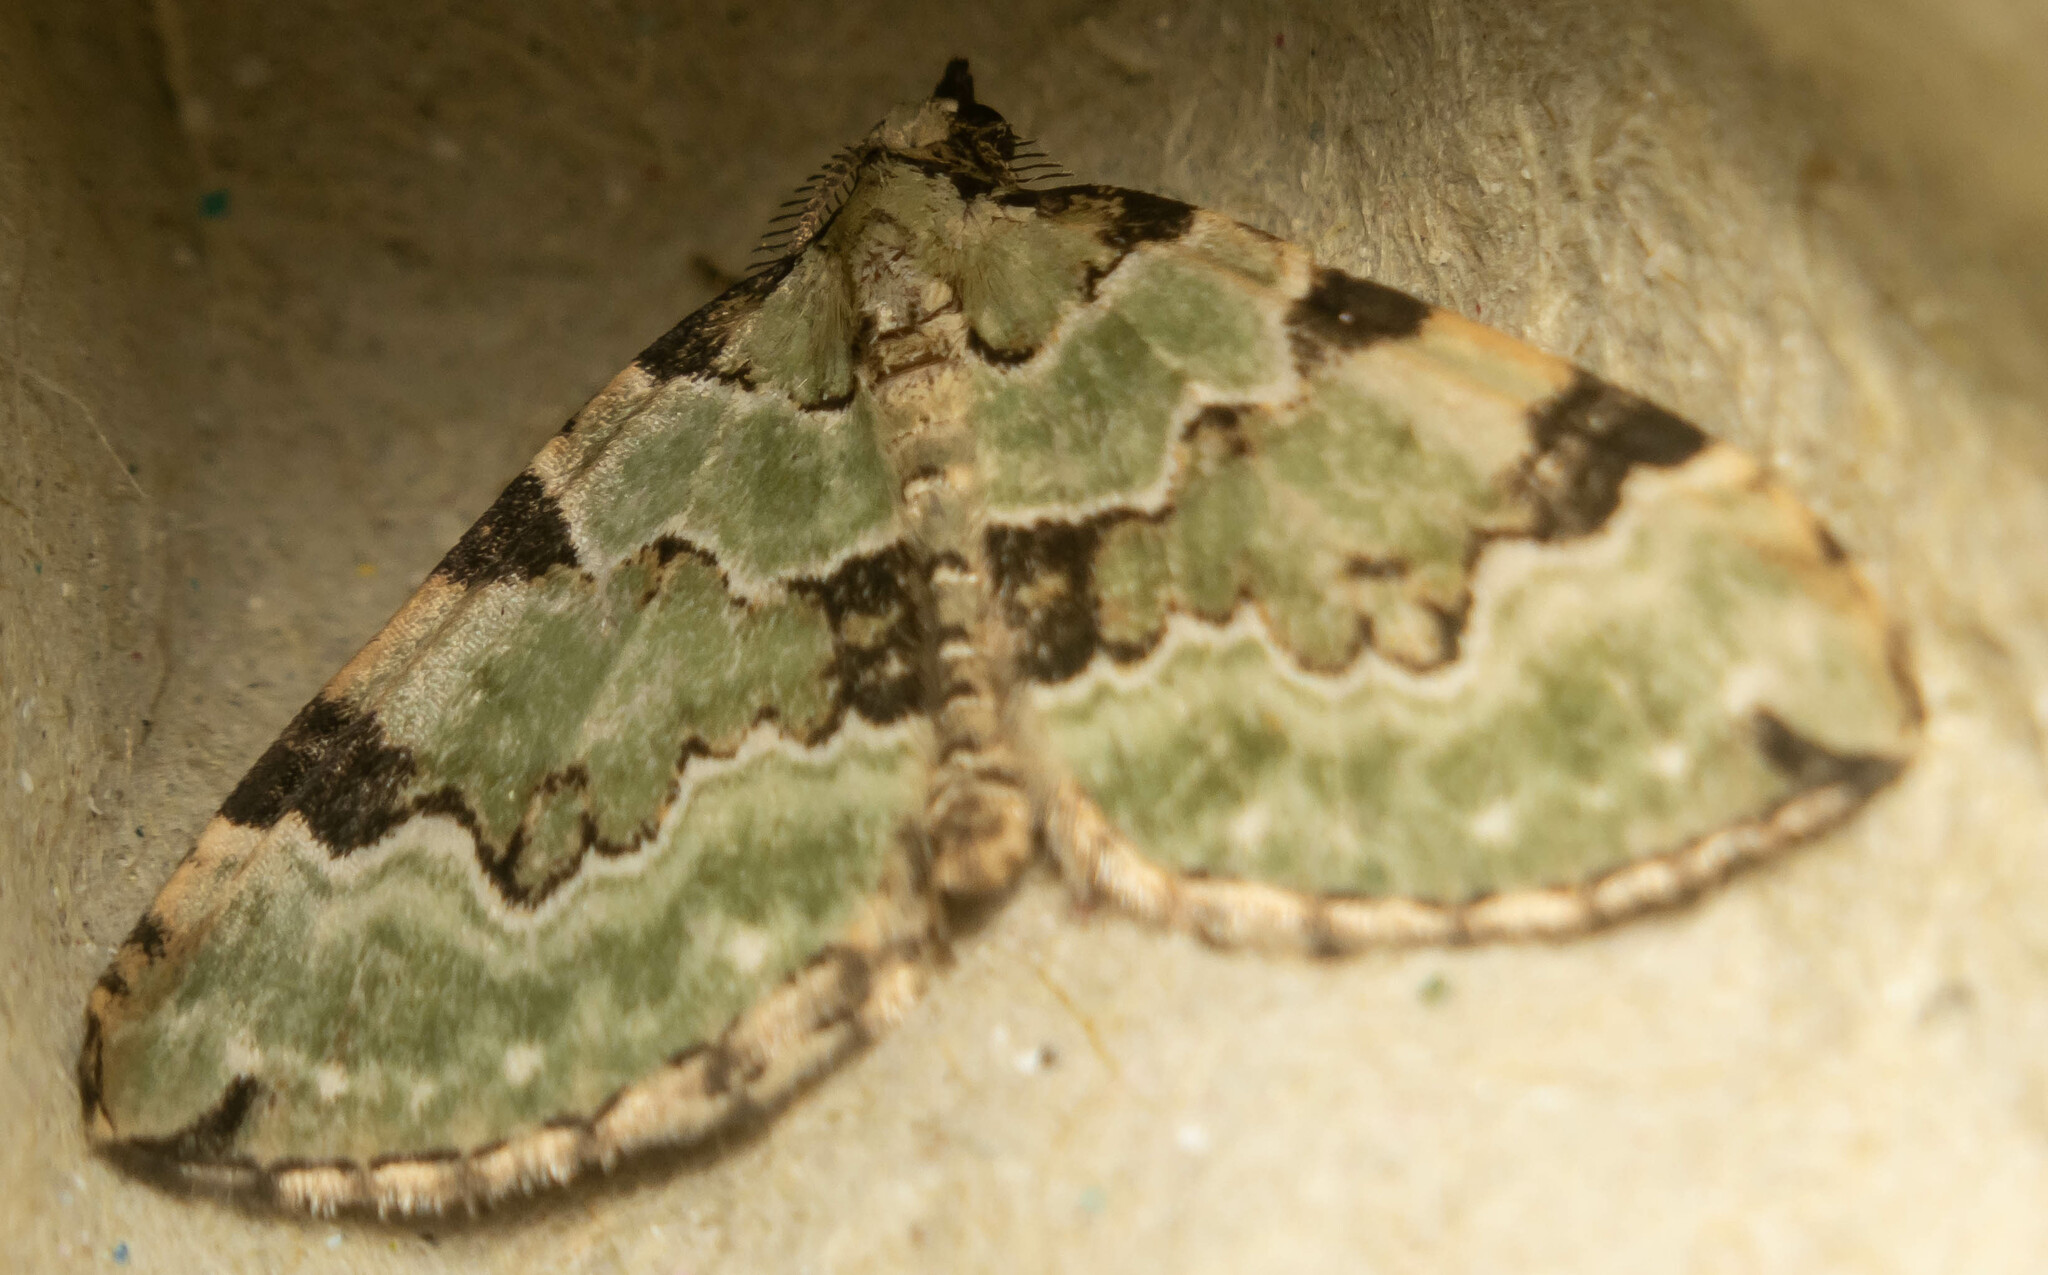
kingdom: Animalia
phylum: Arthropoda
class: Insecta
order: Lepidoptera
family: Geometridae
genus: Colostygia
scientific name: Colostygia pectinataria
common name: Green carpet
